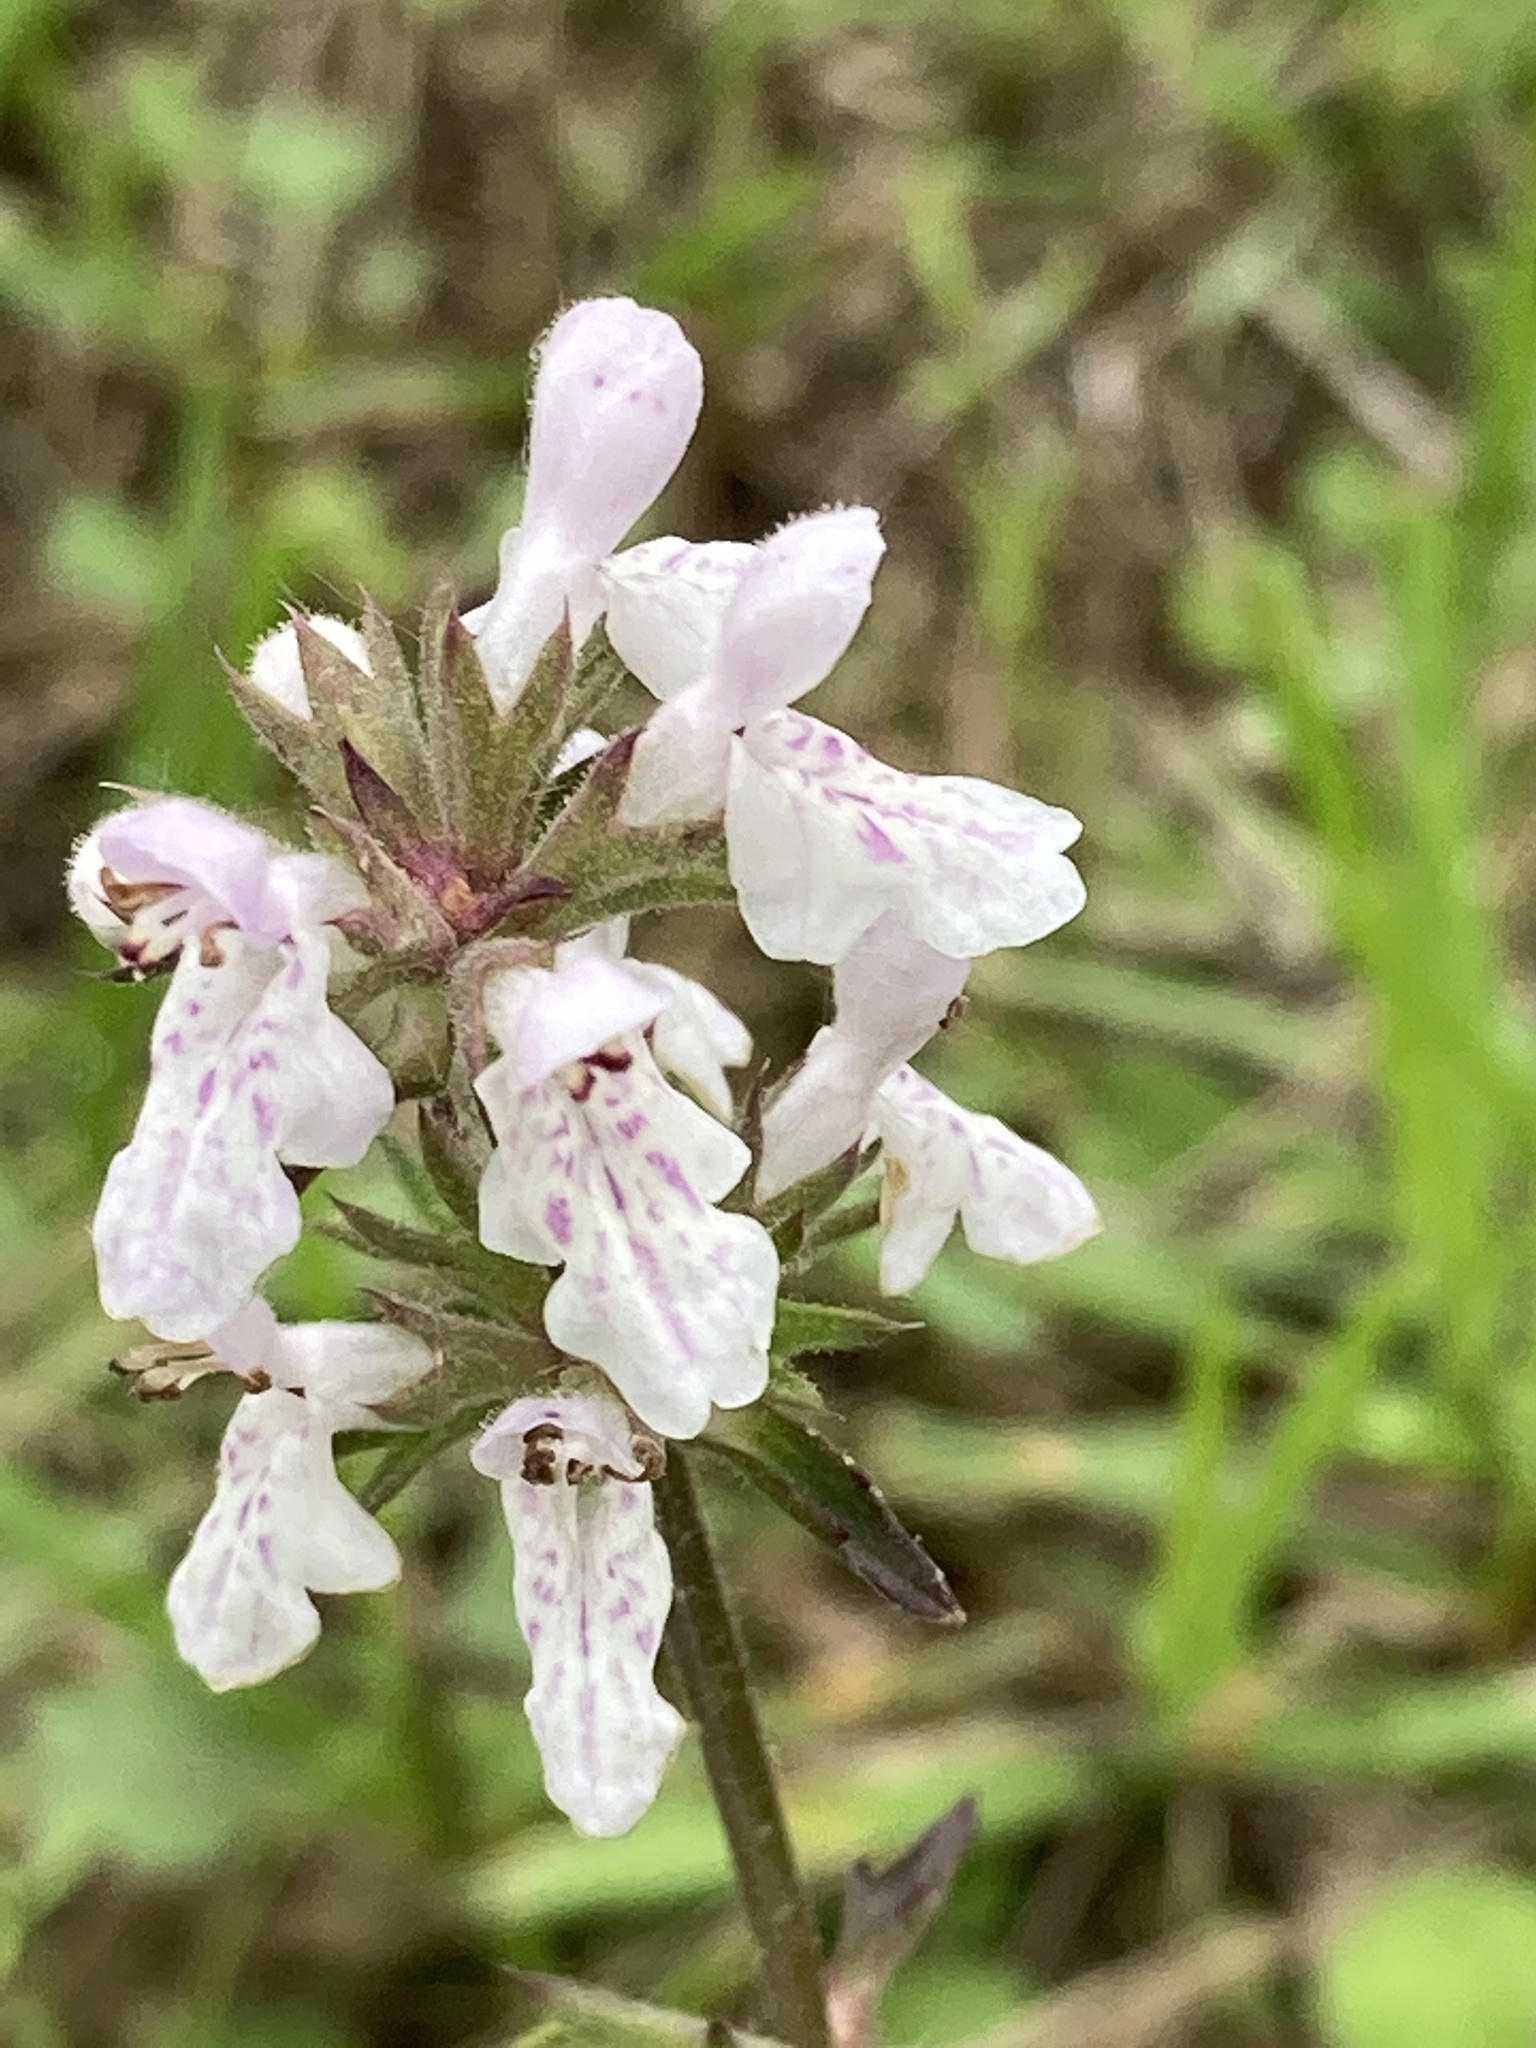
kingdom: Plantae
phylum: Tracheophyta
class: Magnoliopsida
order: Lamiales
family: Lamiaceae
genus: Stachys
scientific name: Stachys floridana
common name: Florida betony
